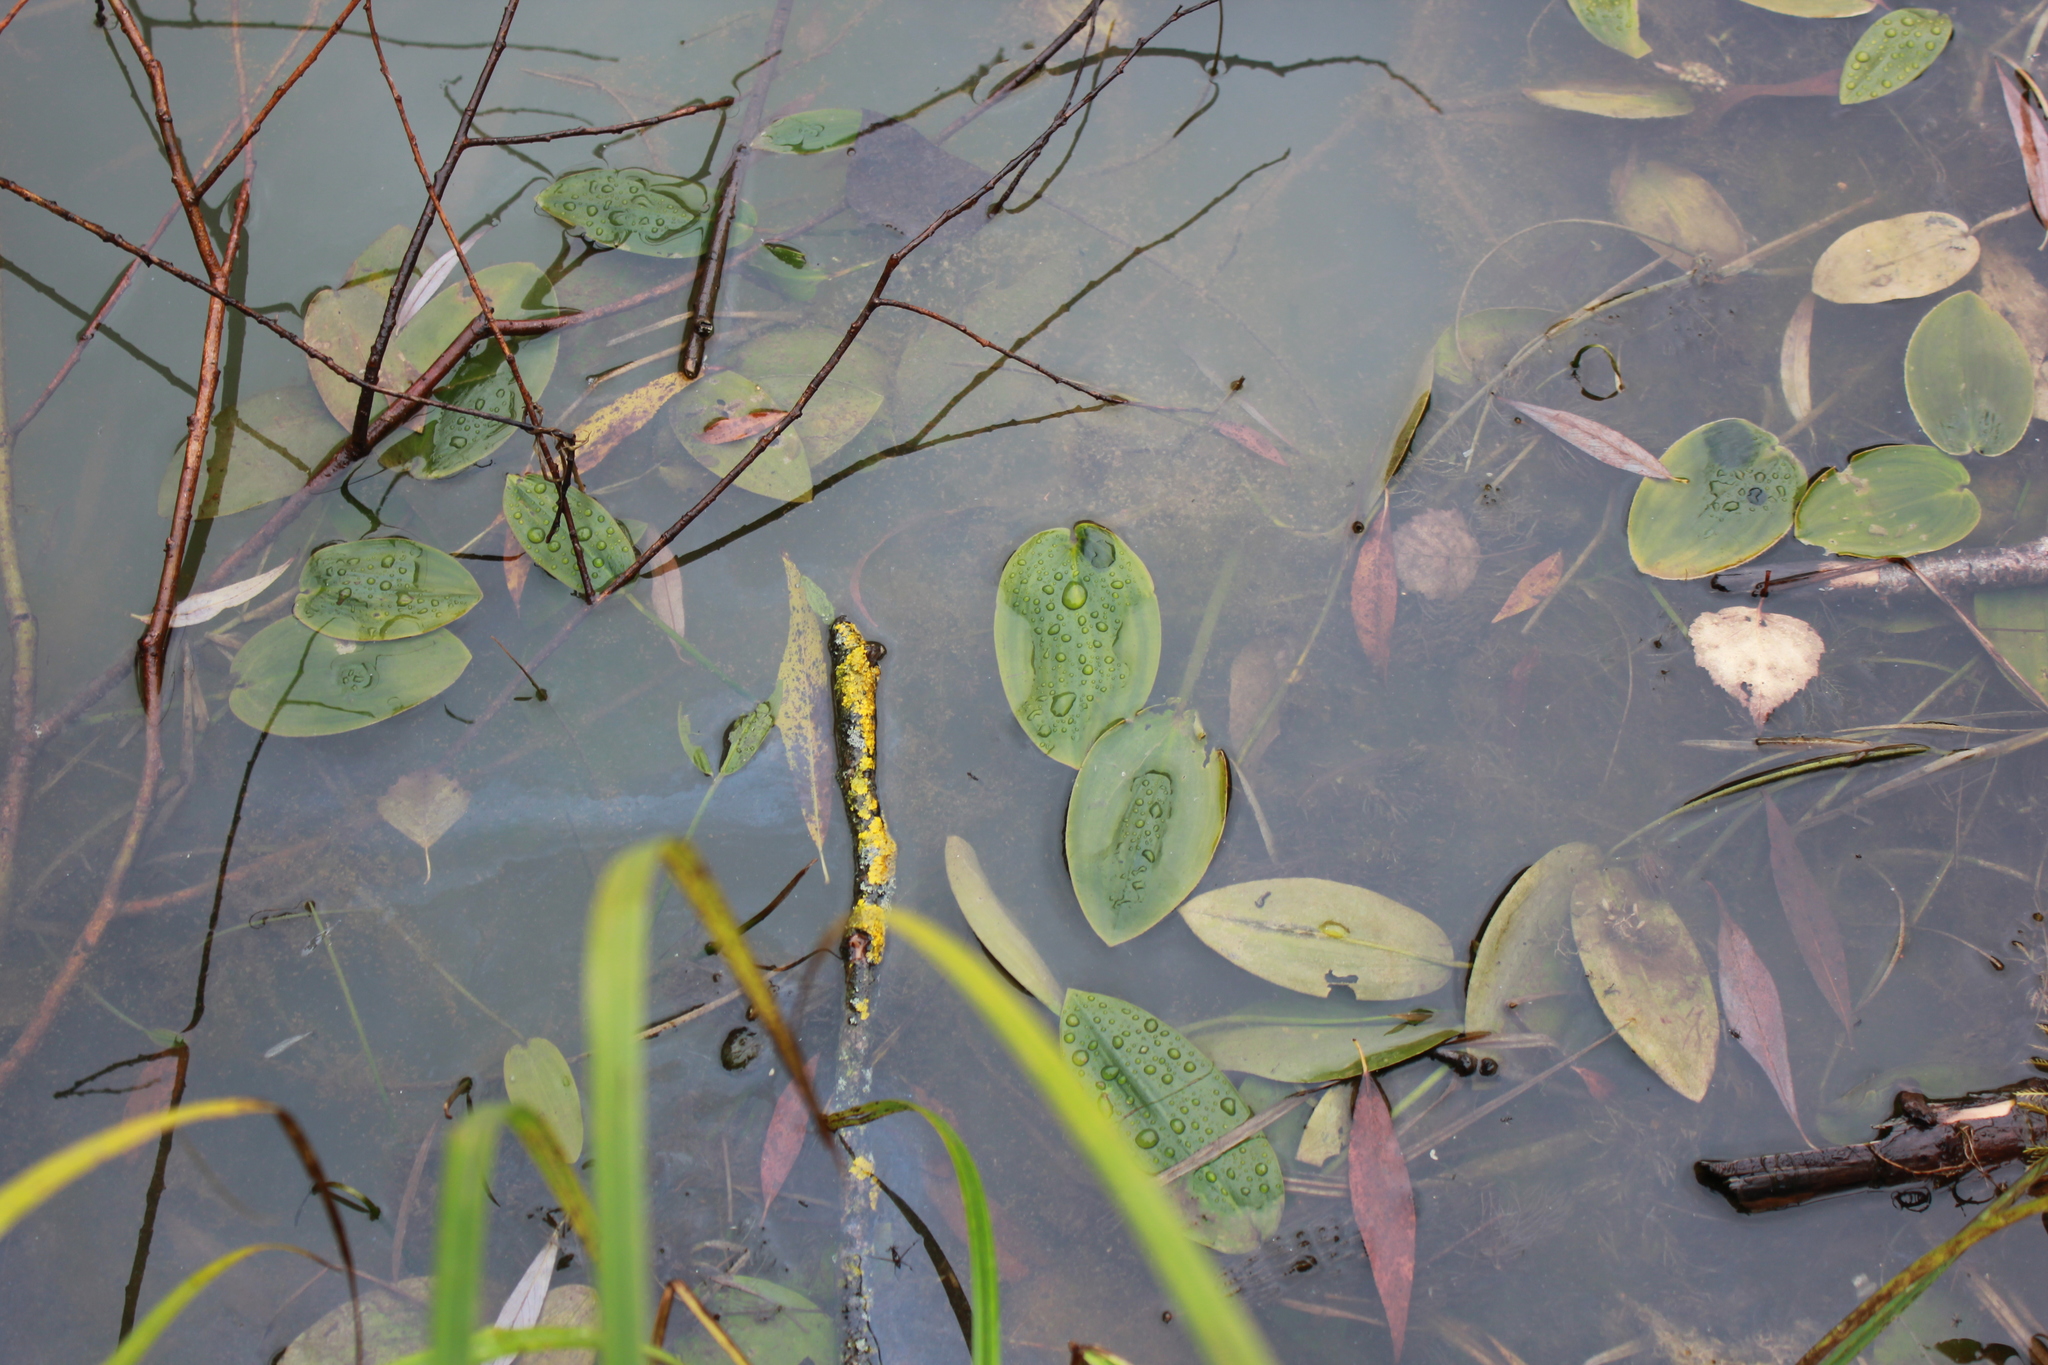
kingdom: Plantae
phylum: Tracheophyta
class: Liliopsida
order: Alismatales
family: Potamogetonaceae
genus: Potamogeton
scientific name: Potamogeton natans
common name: Broad-leaved pondweed
